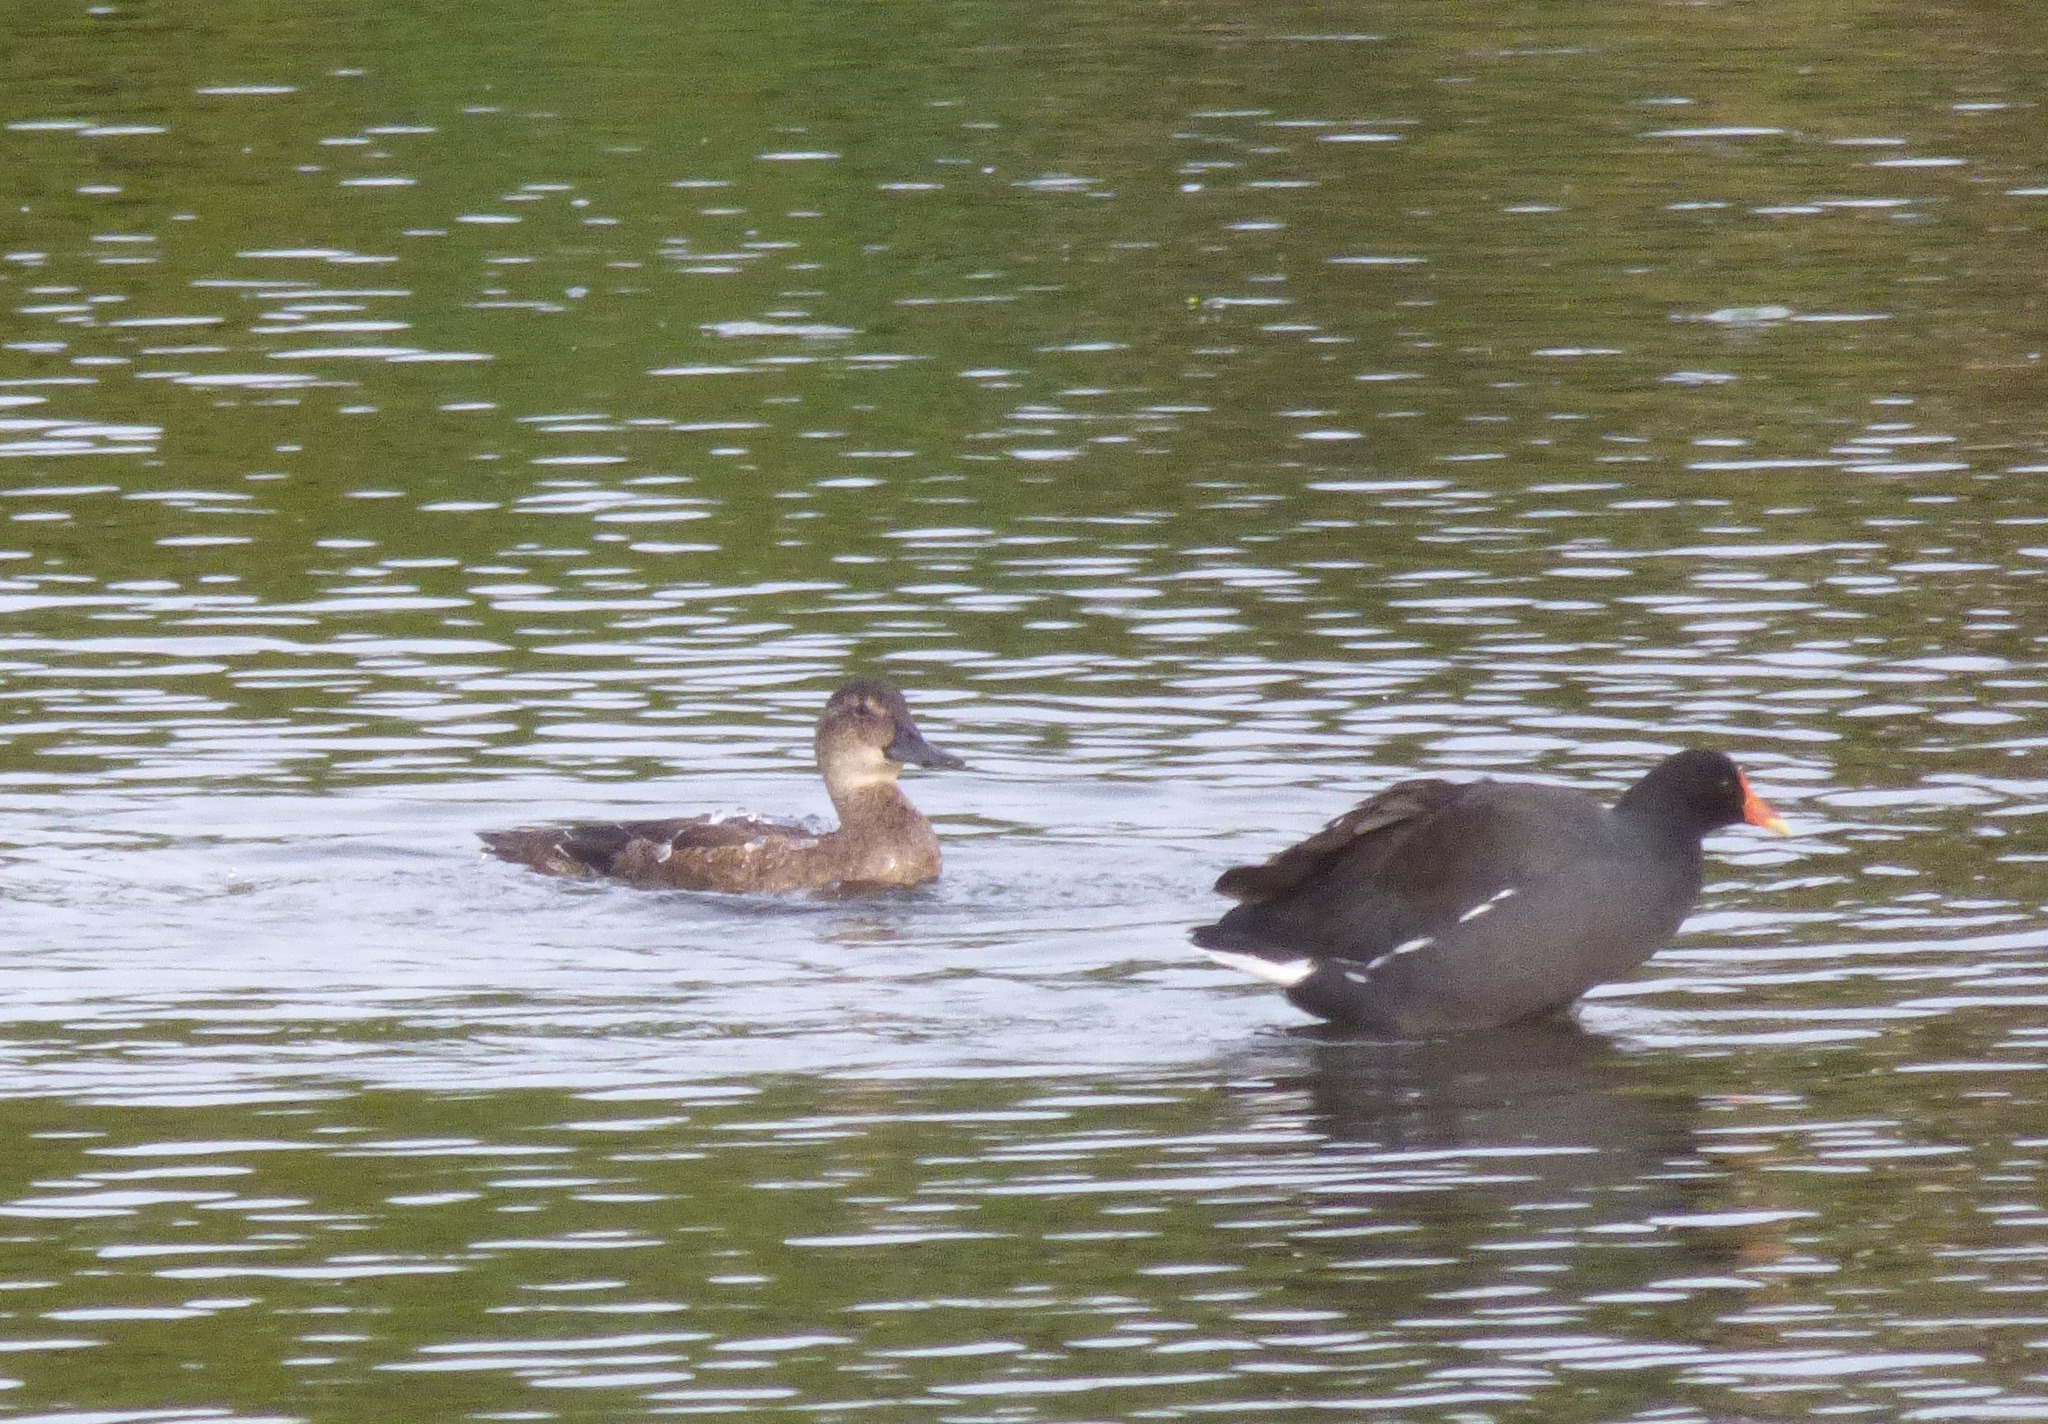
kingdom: Animalia
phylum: Chordata
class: Aves
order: Anseriformes
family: Anatidae
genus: Heteronetta
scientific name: Heteronetta atricapilla
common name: Black-headed duck
